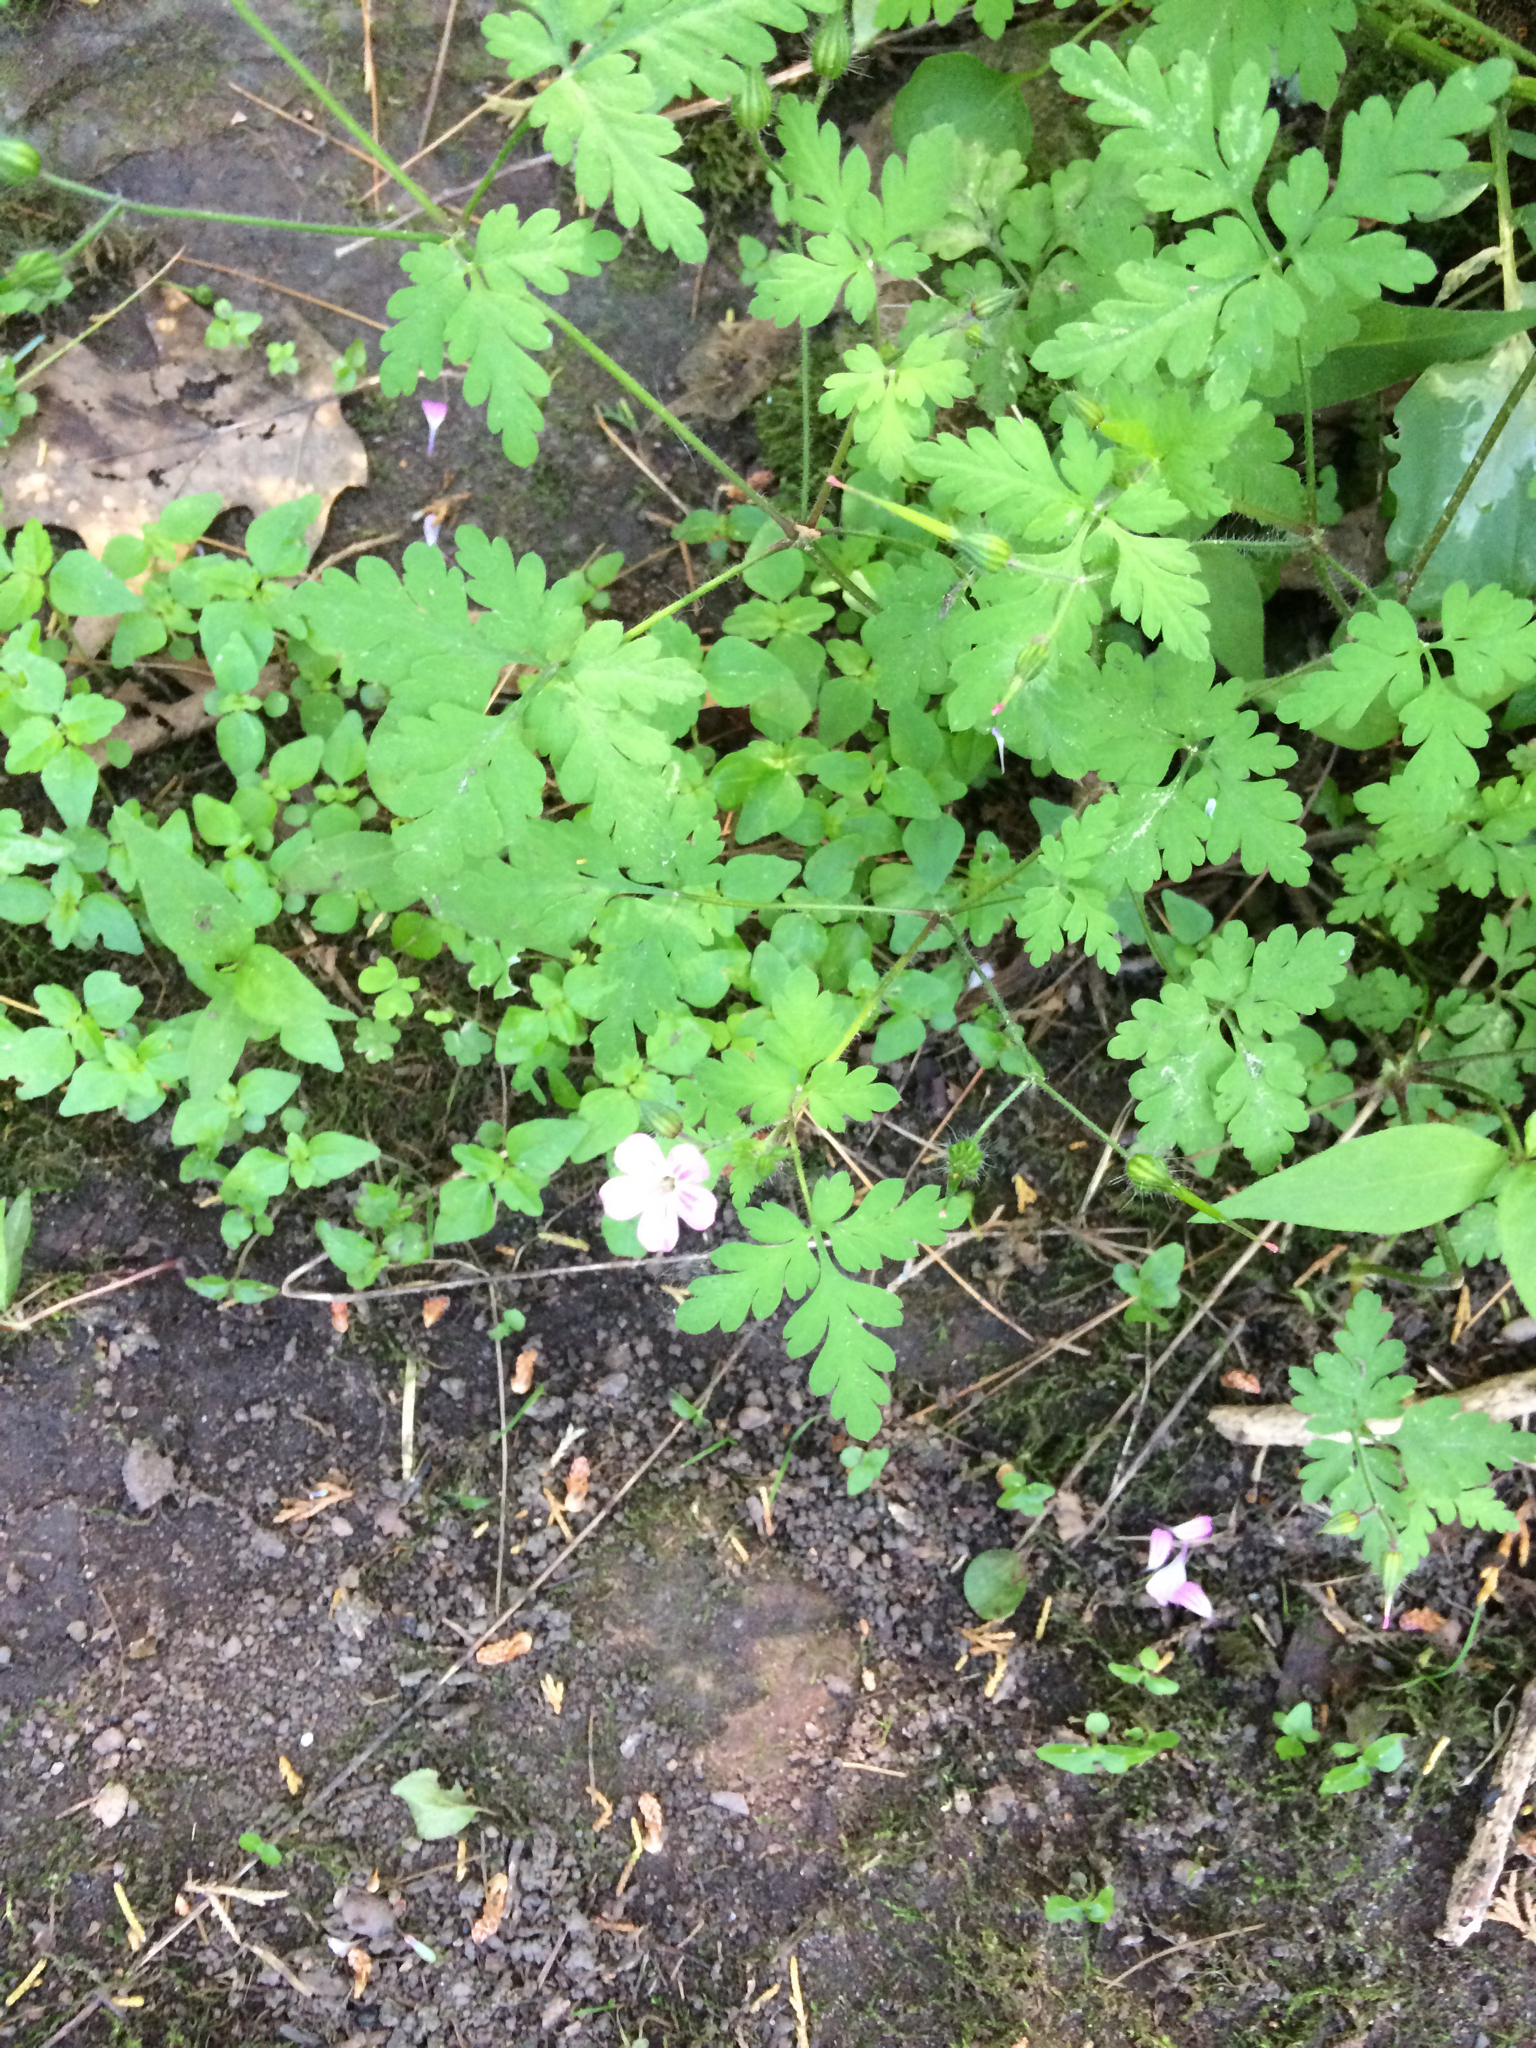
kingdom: Plantae
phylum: Tracheophyta
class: Magnoliopsida
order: Geraniales
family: Geraniaceae
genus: Geranium
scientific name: Geranium robertianum
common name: Herb-robert
